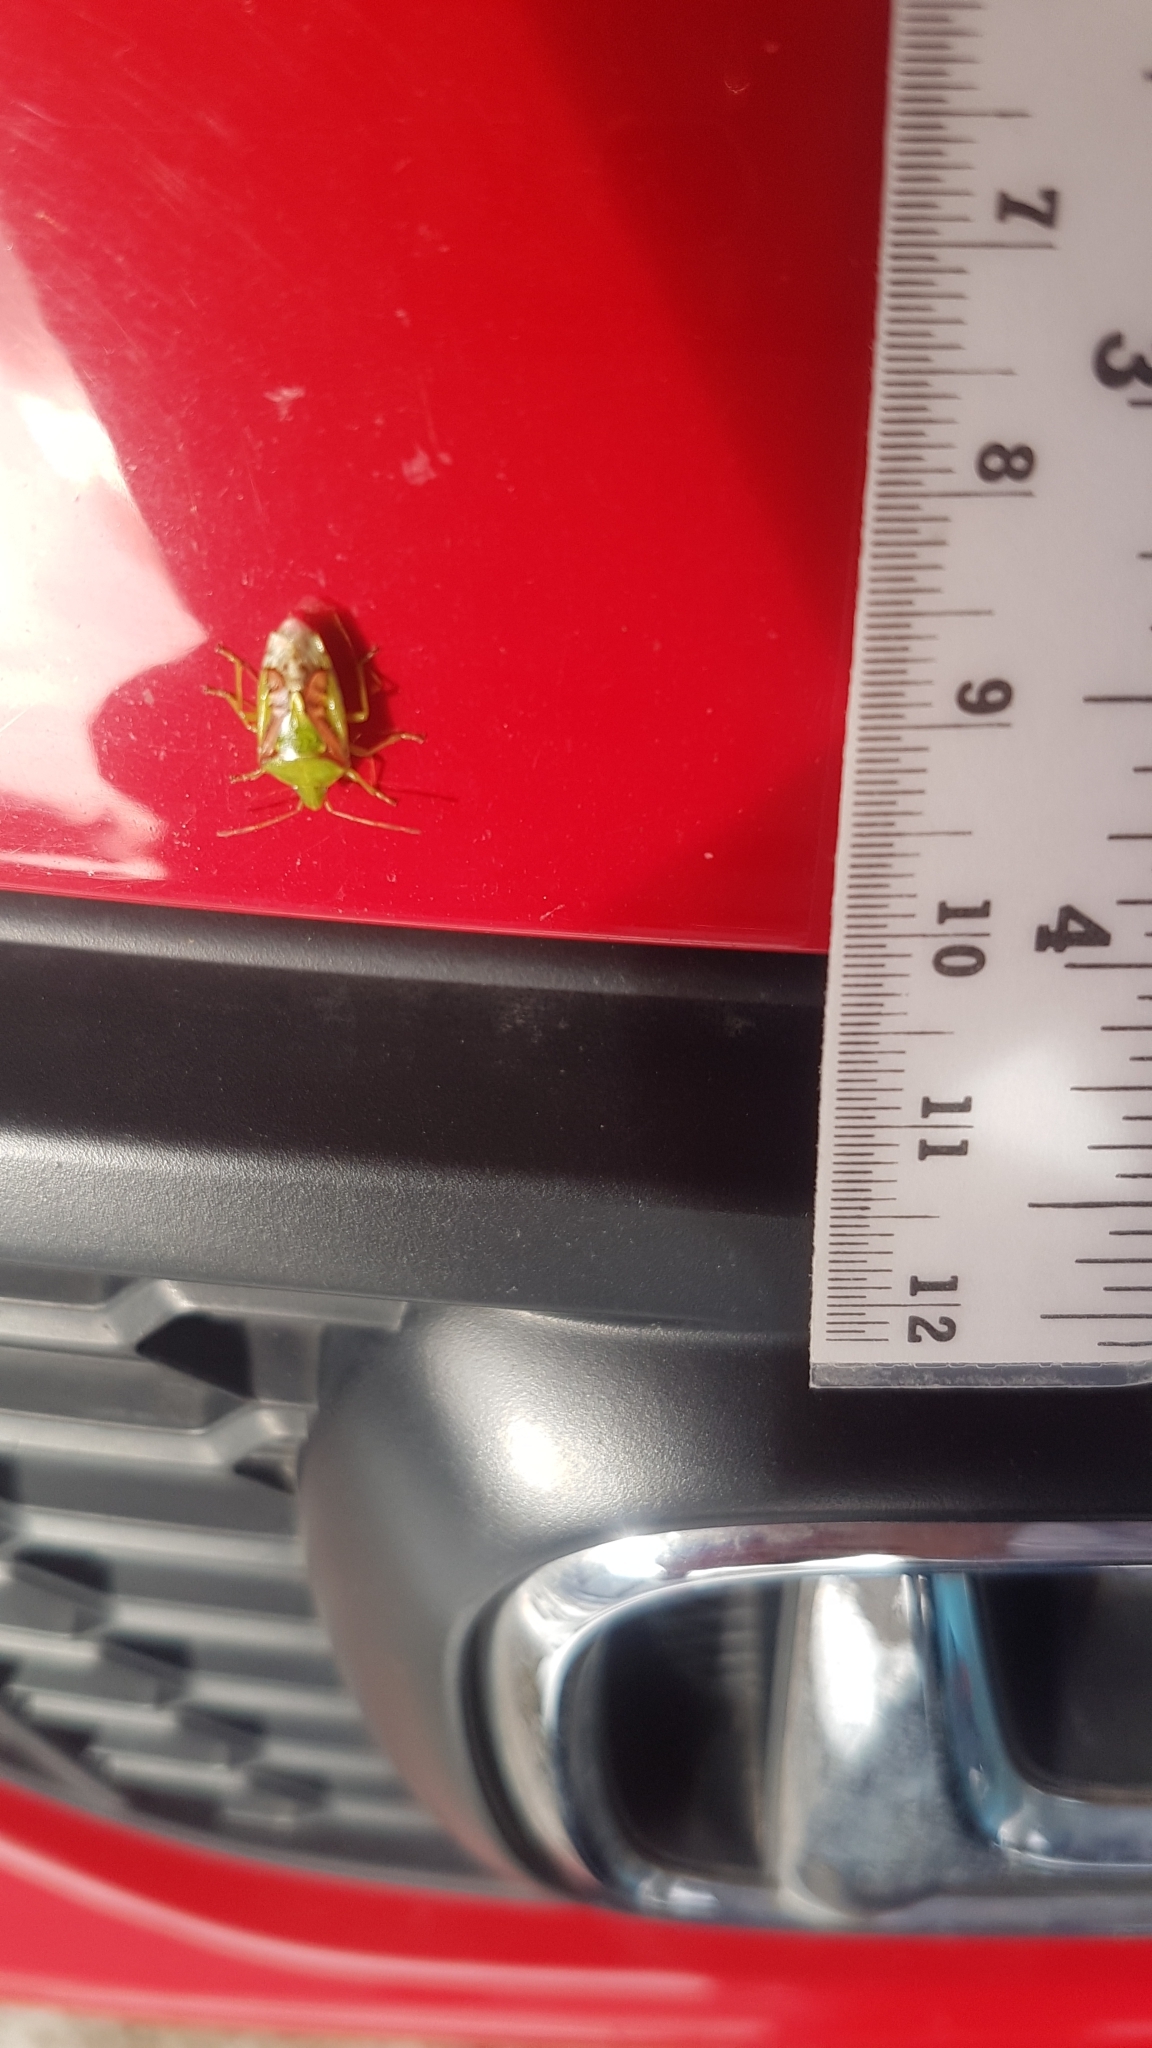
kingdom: Animalia
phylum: Arthropoda
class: Insecta
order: Hemiptera
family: Acanthosomatidae
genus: Cyphostethus
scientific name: Cyphostethus tristriatus
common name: Juniper shieldbug
